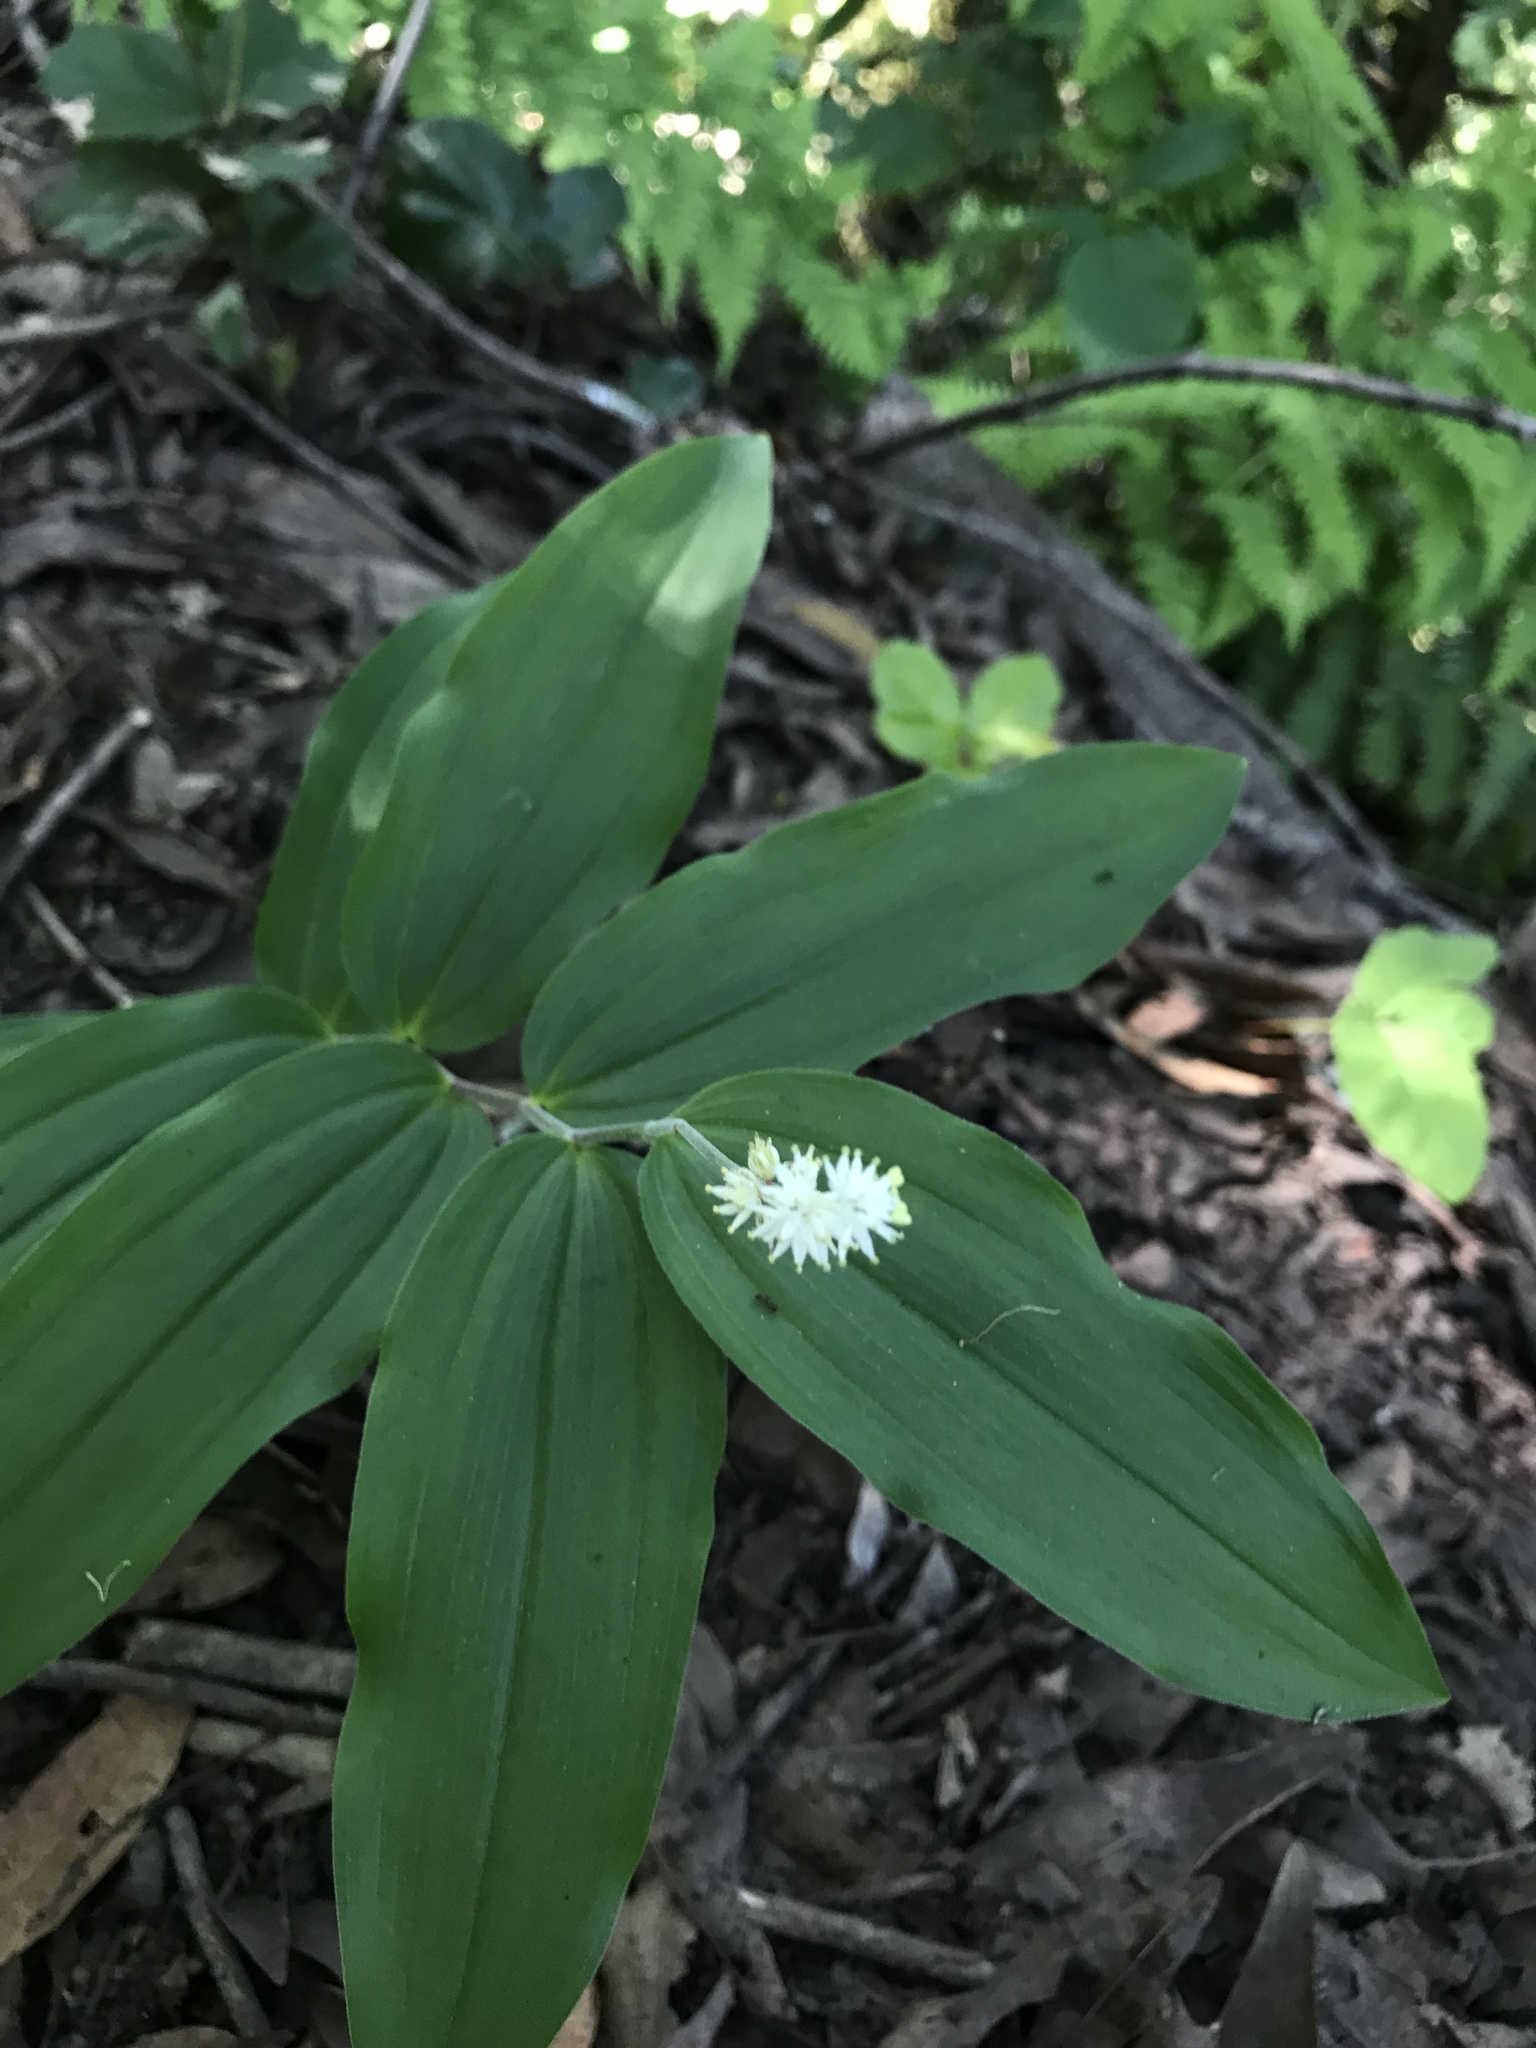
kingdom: Plantae
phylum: Tracheophyta
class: Liliopsida
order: Asparagales
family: Asparagaceae
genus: Maianthemum
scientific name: Maianthemum racemosum
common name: False spikenard
